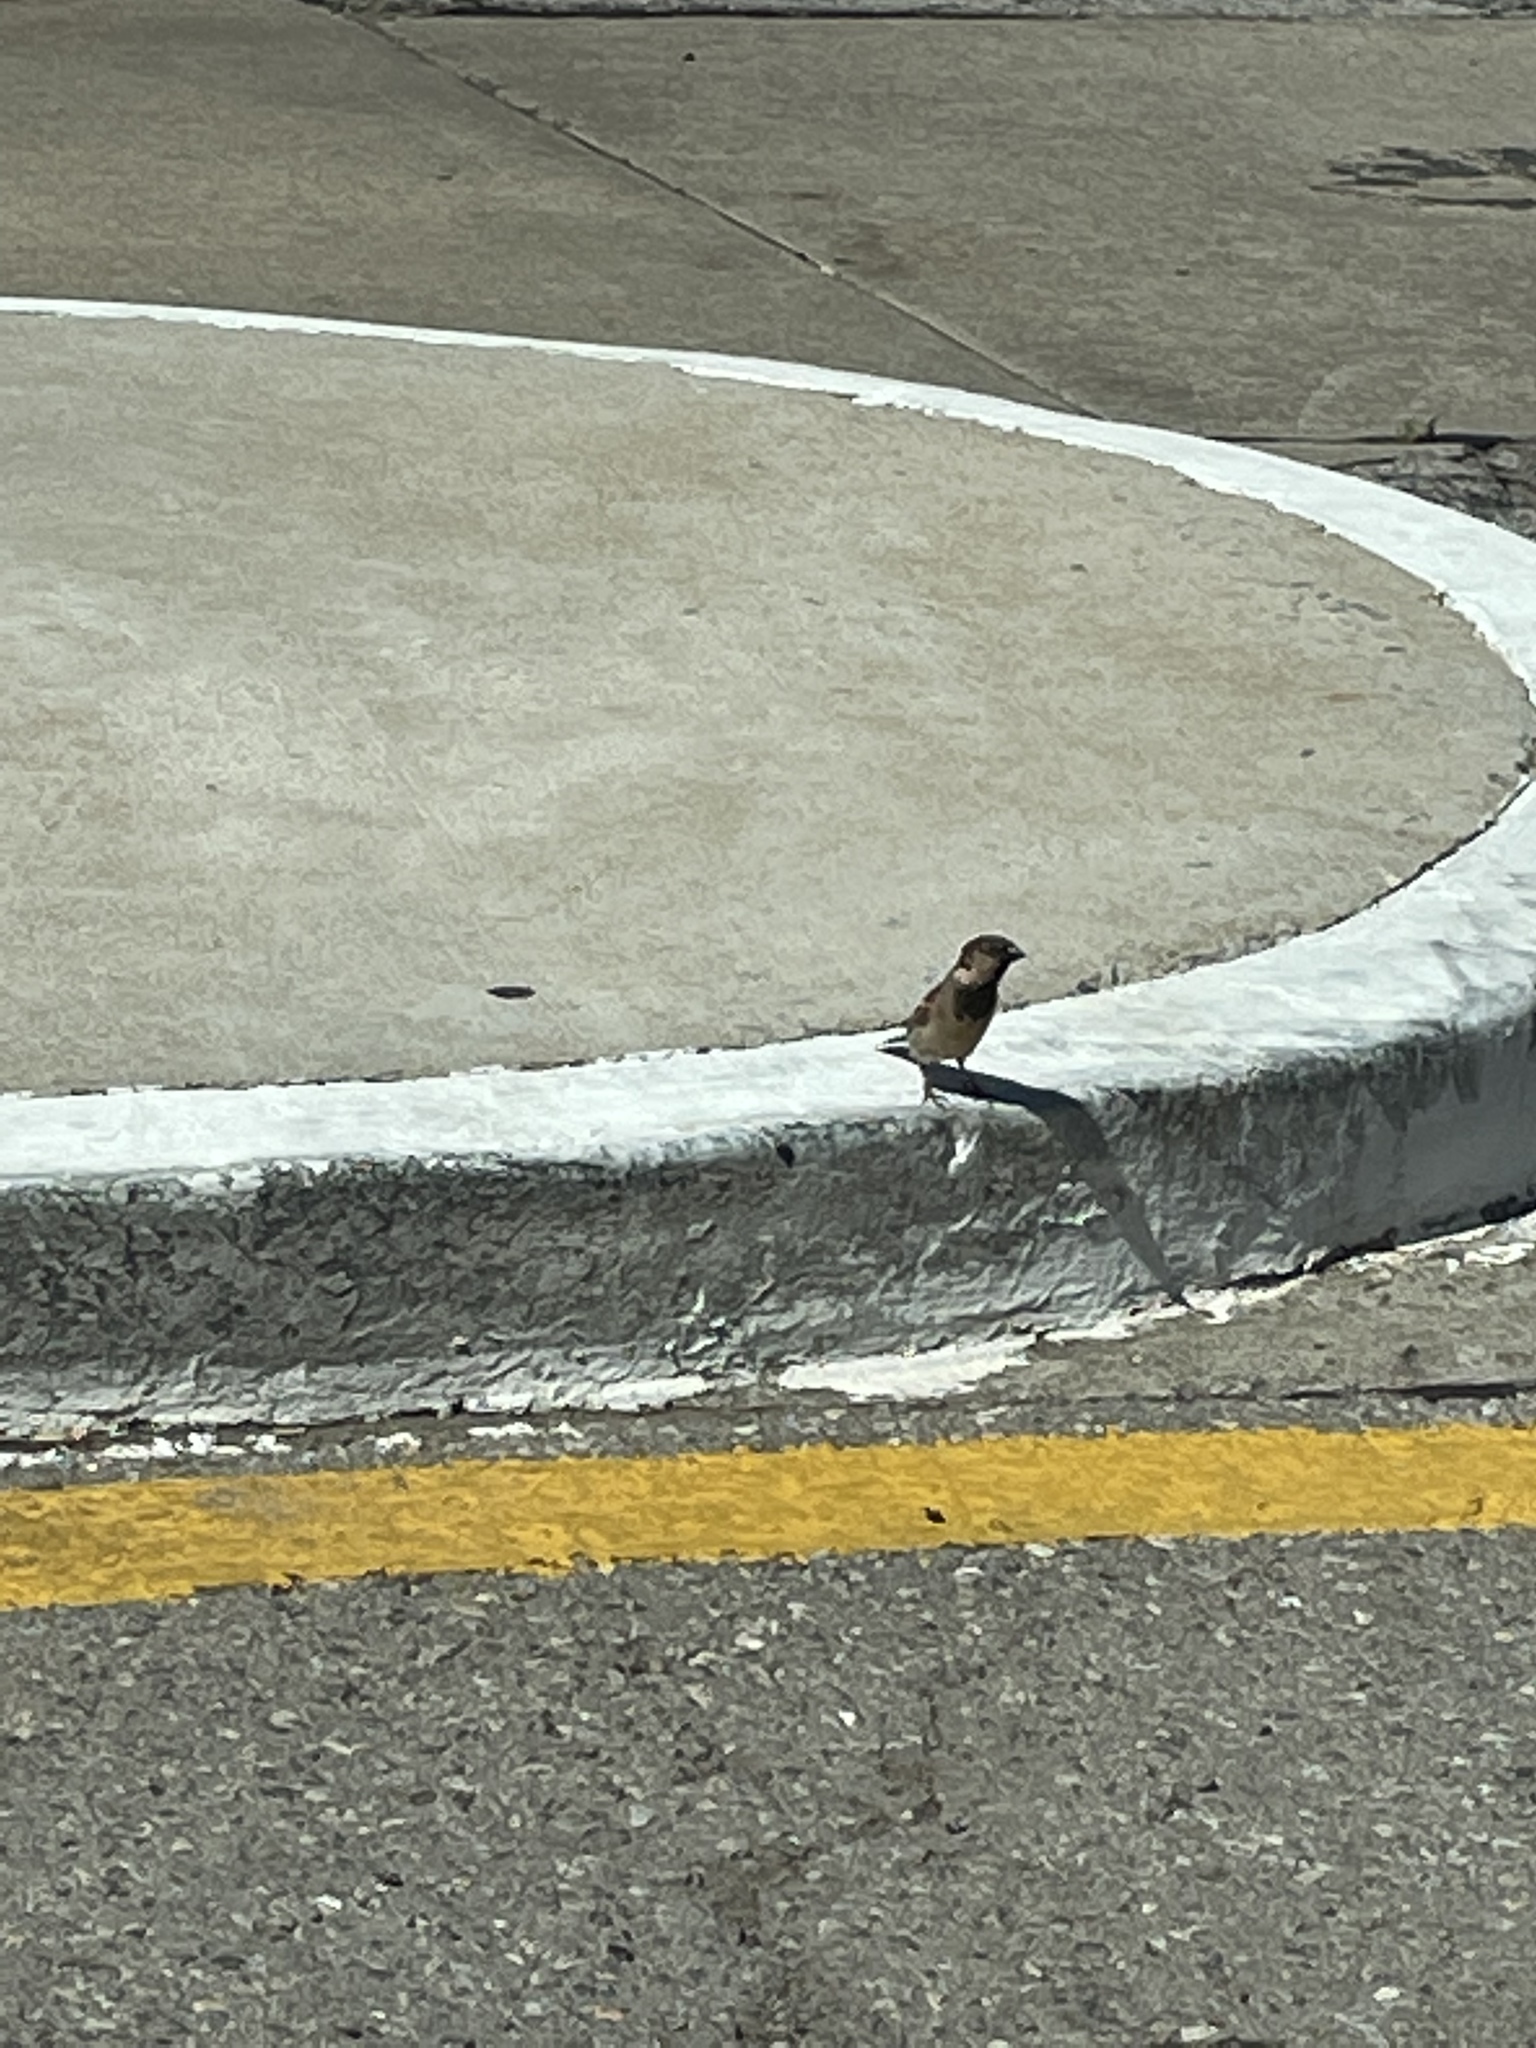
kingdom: Animalia
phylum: Chordata
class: Aves
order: Passeriformes
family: Passeridae
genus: Passer
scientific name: Passer domesticus
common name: House sparrow
